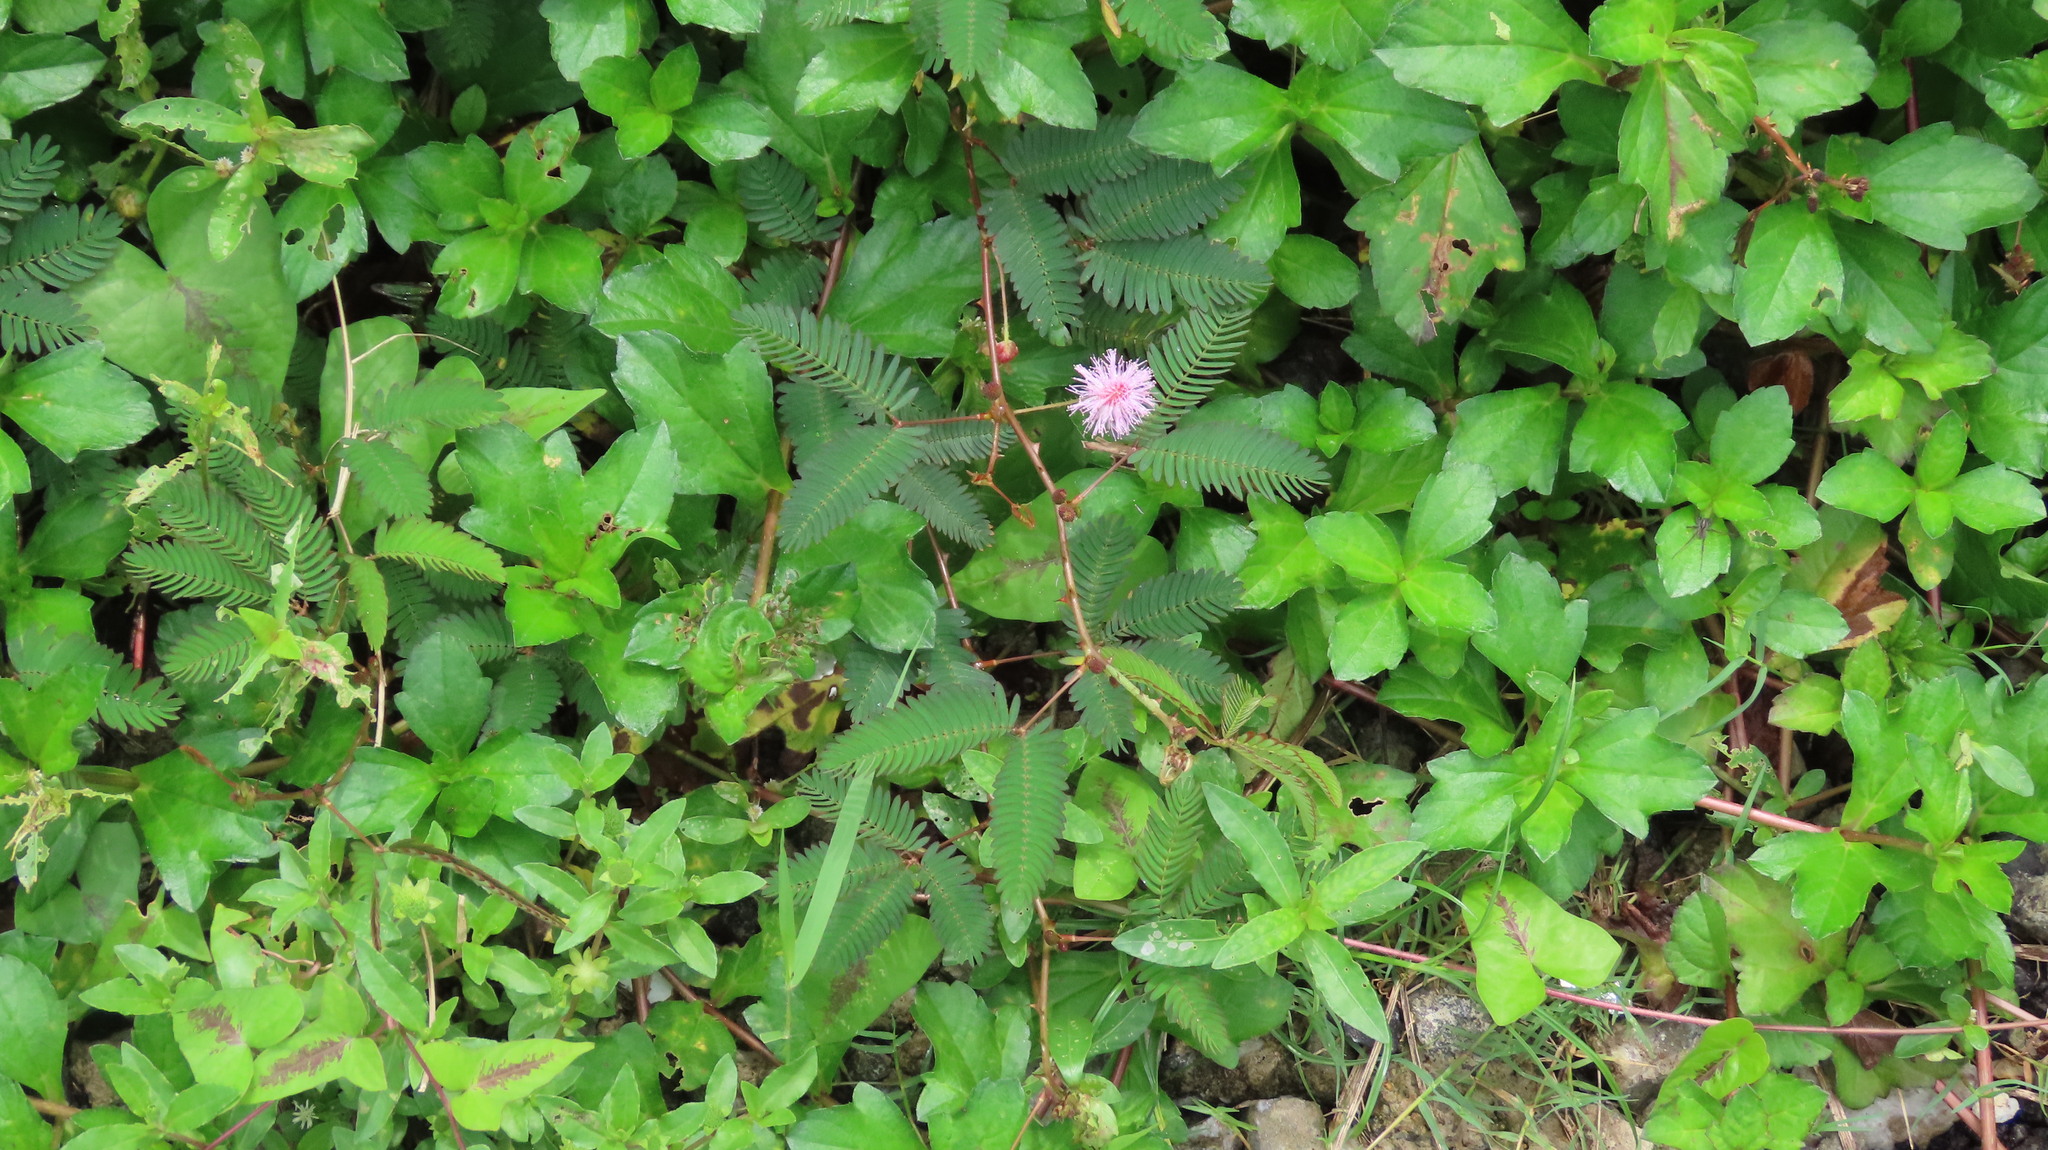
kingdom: Plantae
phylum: Tracheophyta
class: Magnoliopsida
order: Fabales
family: Fabaceae
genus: Mimosa
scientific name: Mimosa pudica
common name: Sensitive plant
